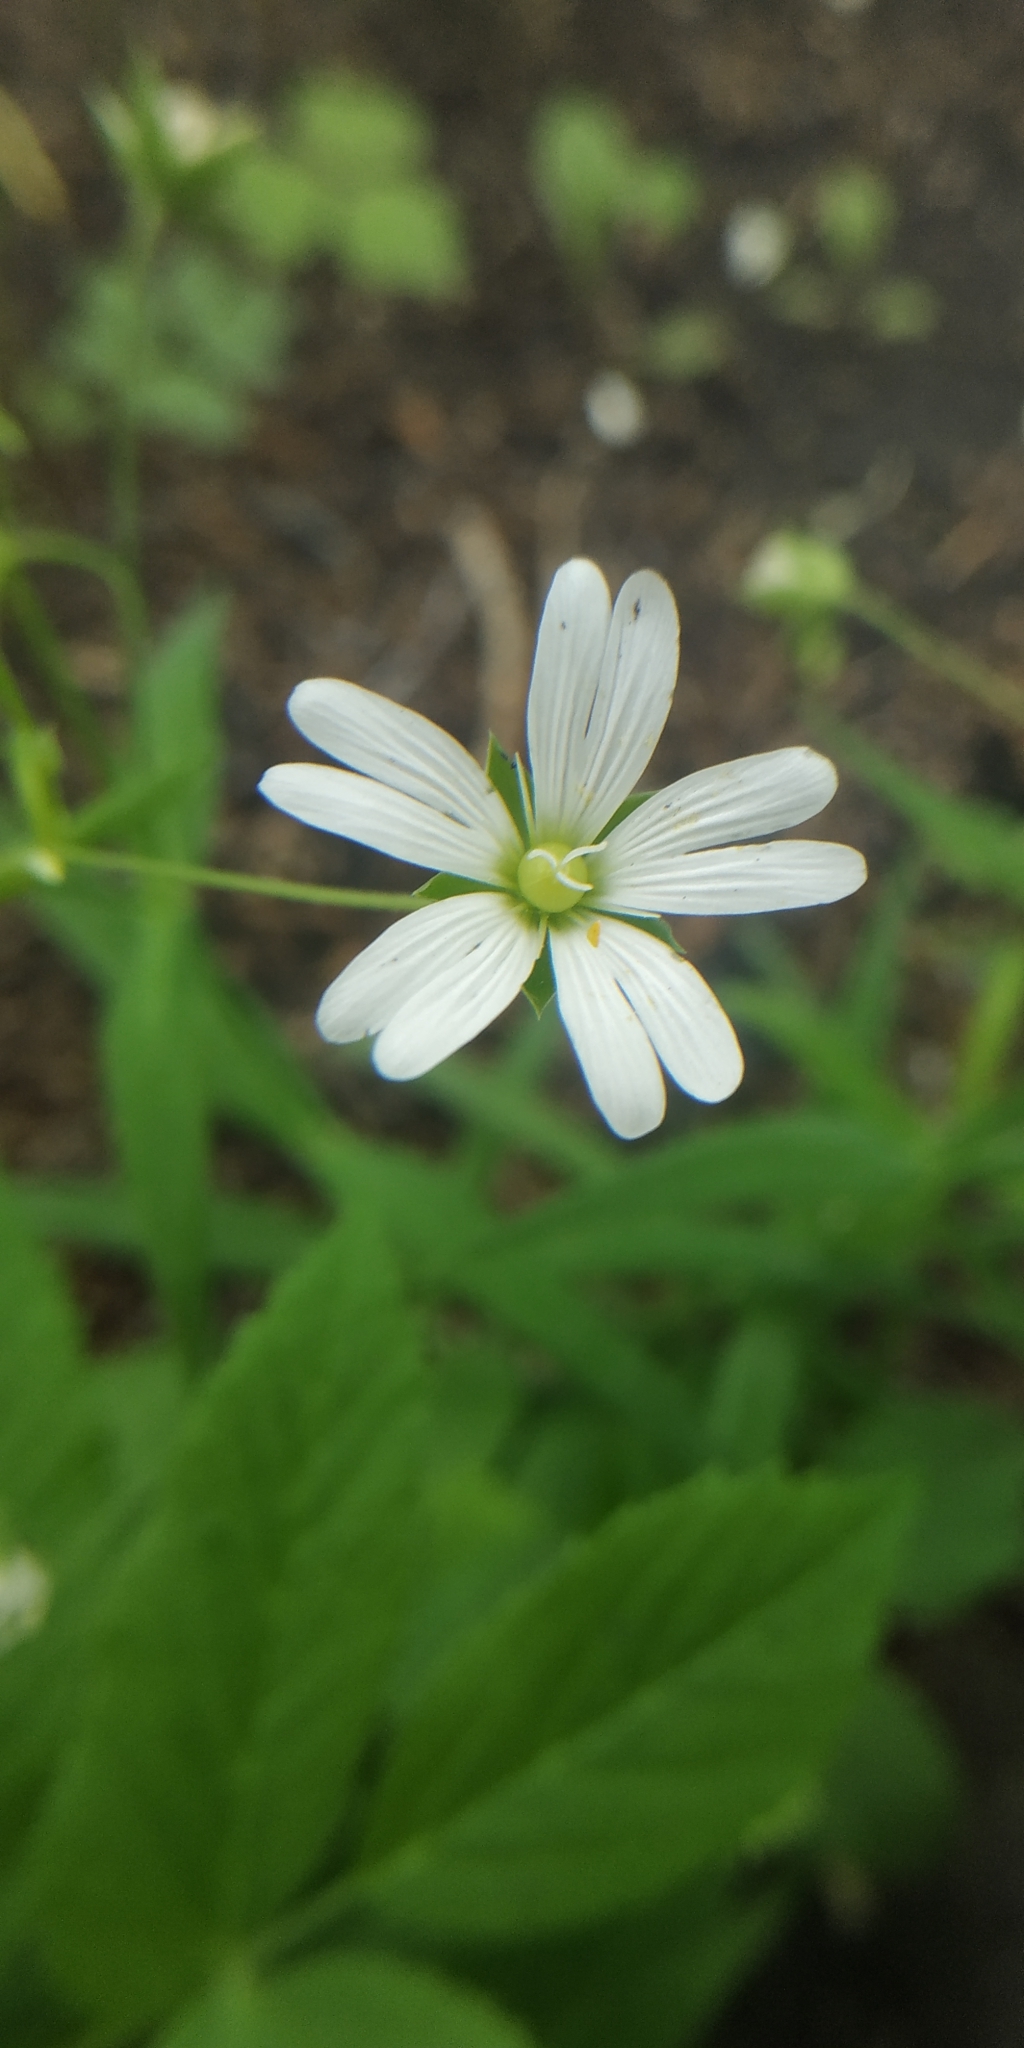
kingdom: Plantae
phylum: Tracheophyta
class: Magnoliopsida
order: Caryophyllales
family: Caryophyllaceae
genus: Rabelera
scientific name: Rabelera holostea
